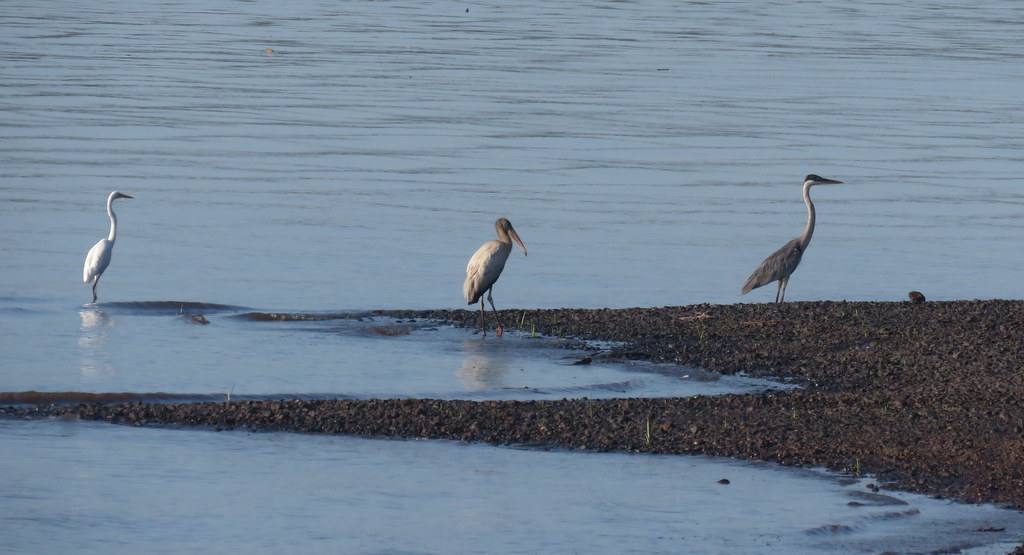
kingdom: Animalia
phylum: Chordata
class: Aves
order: Pelecaniformes
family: Ardeidae
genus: Ardea
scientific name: Ardea cocoi
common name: Cocoi heron
